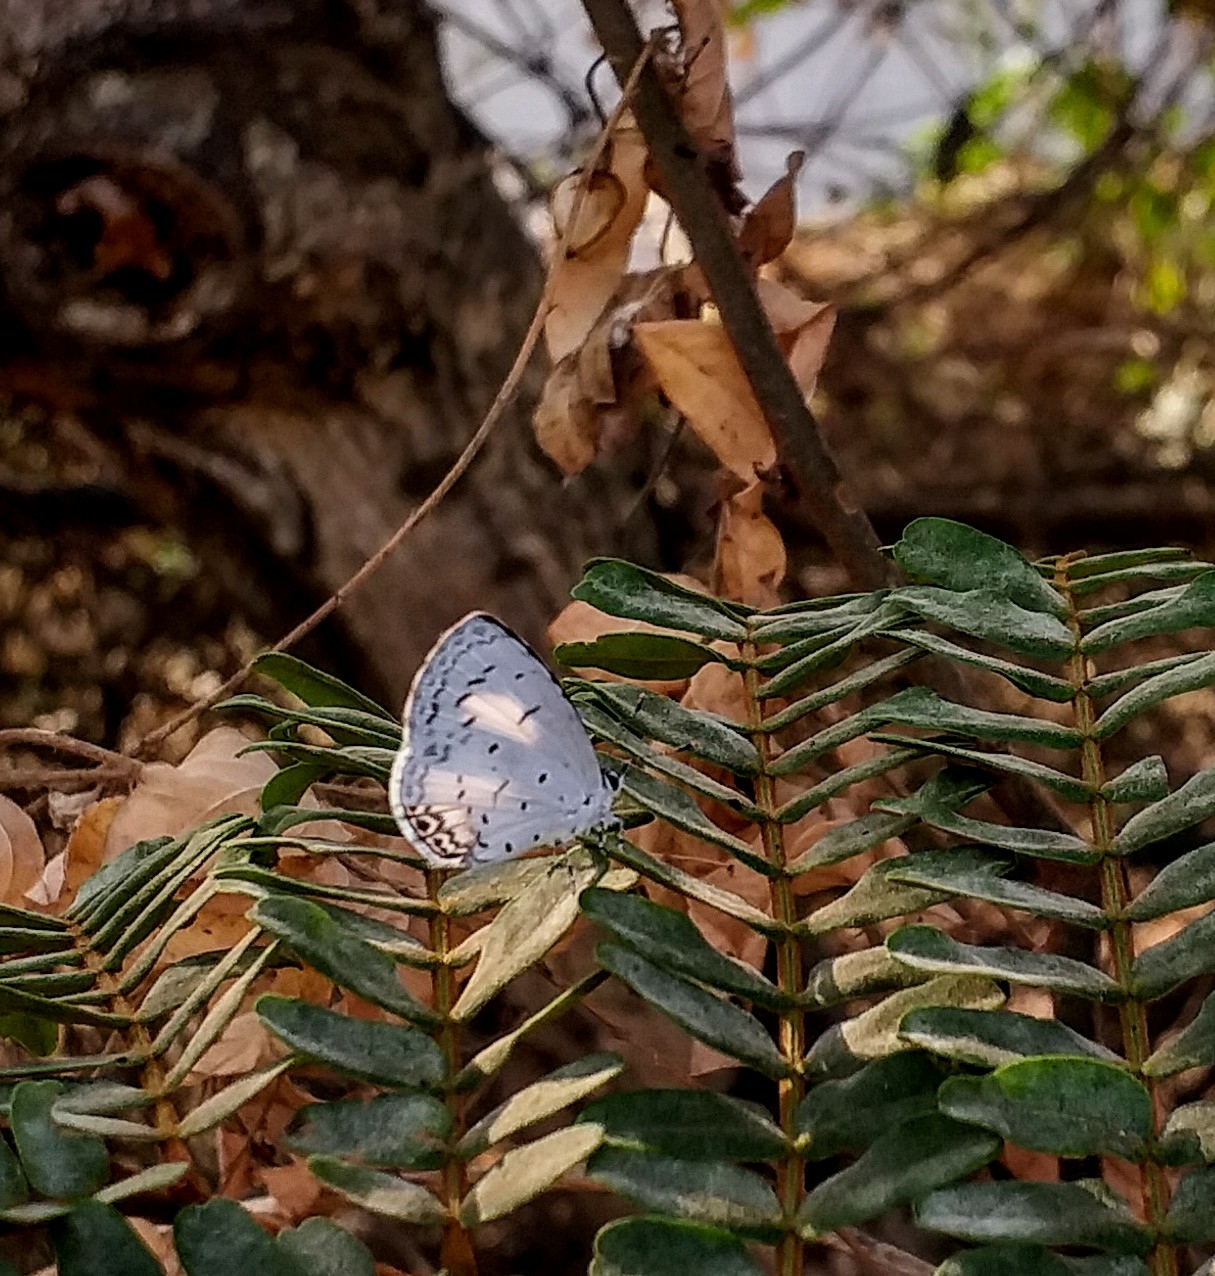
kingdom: Animalia
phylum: Arthropoda
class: Insecta
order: Lepidoptera
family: Lycaenidae
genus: Acytolepis
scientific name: Acytolepis puspa
